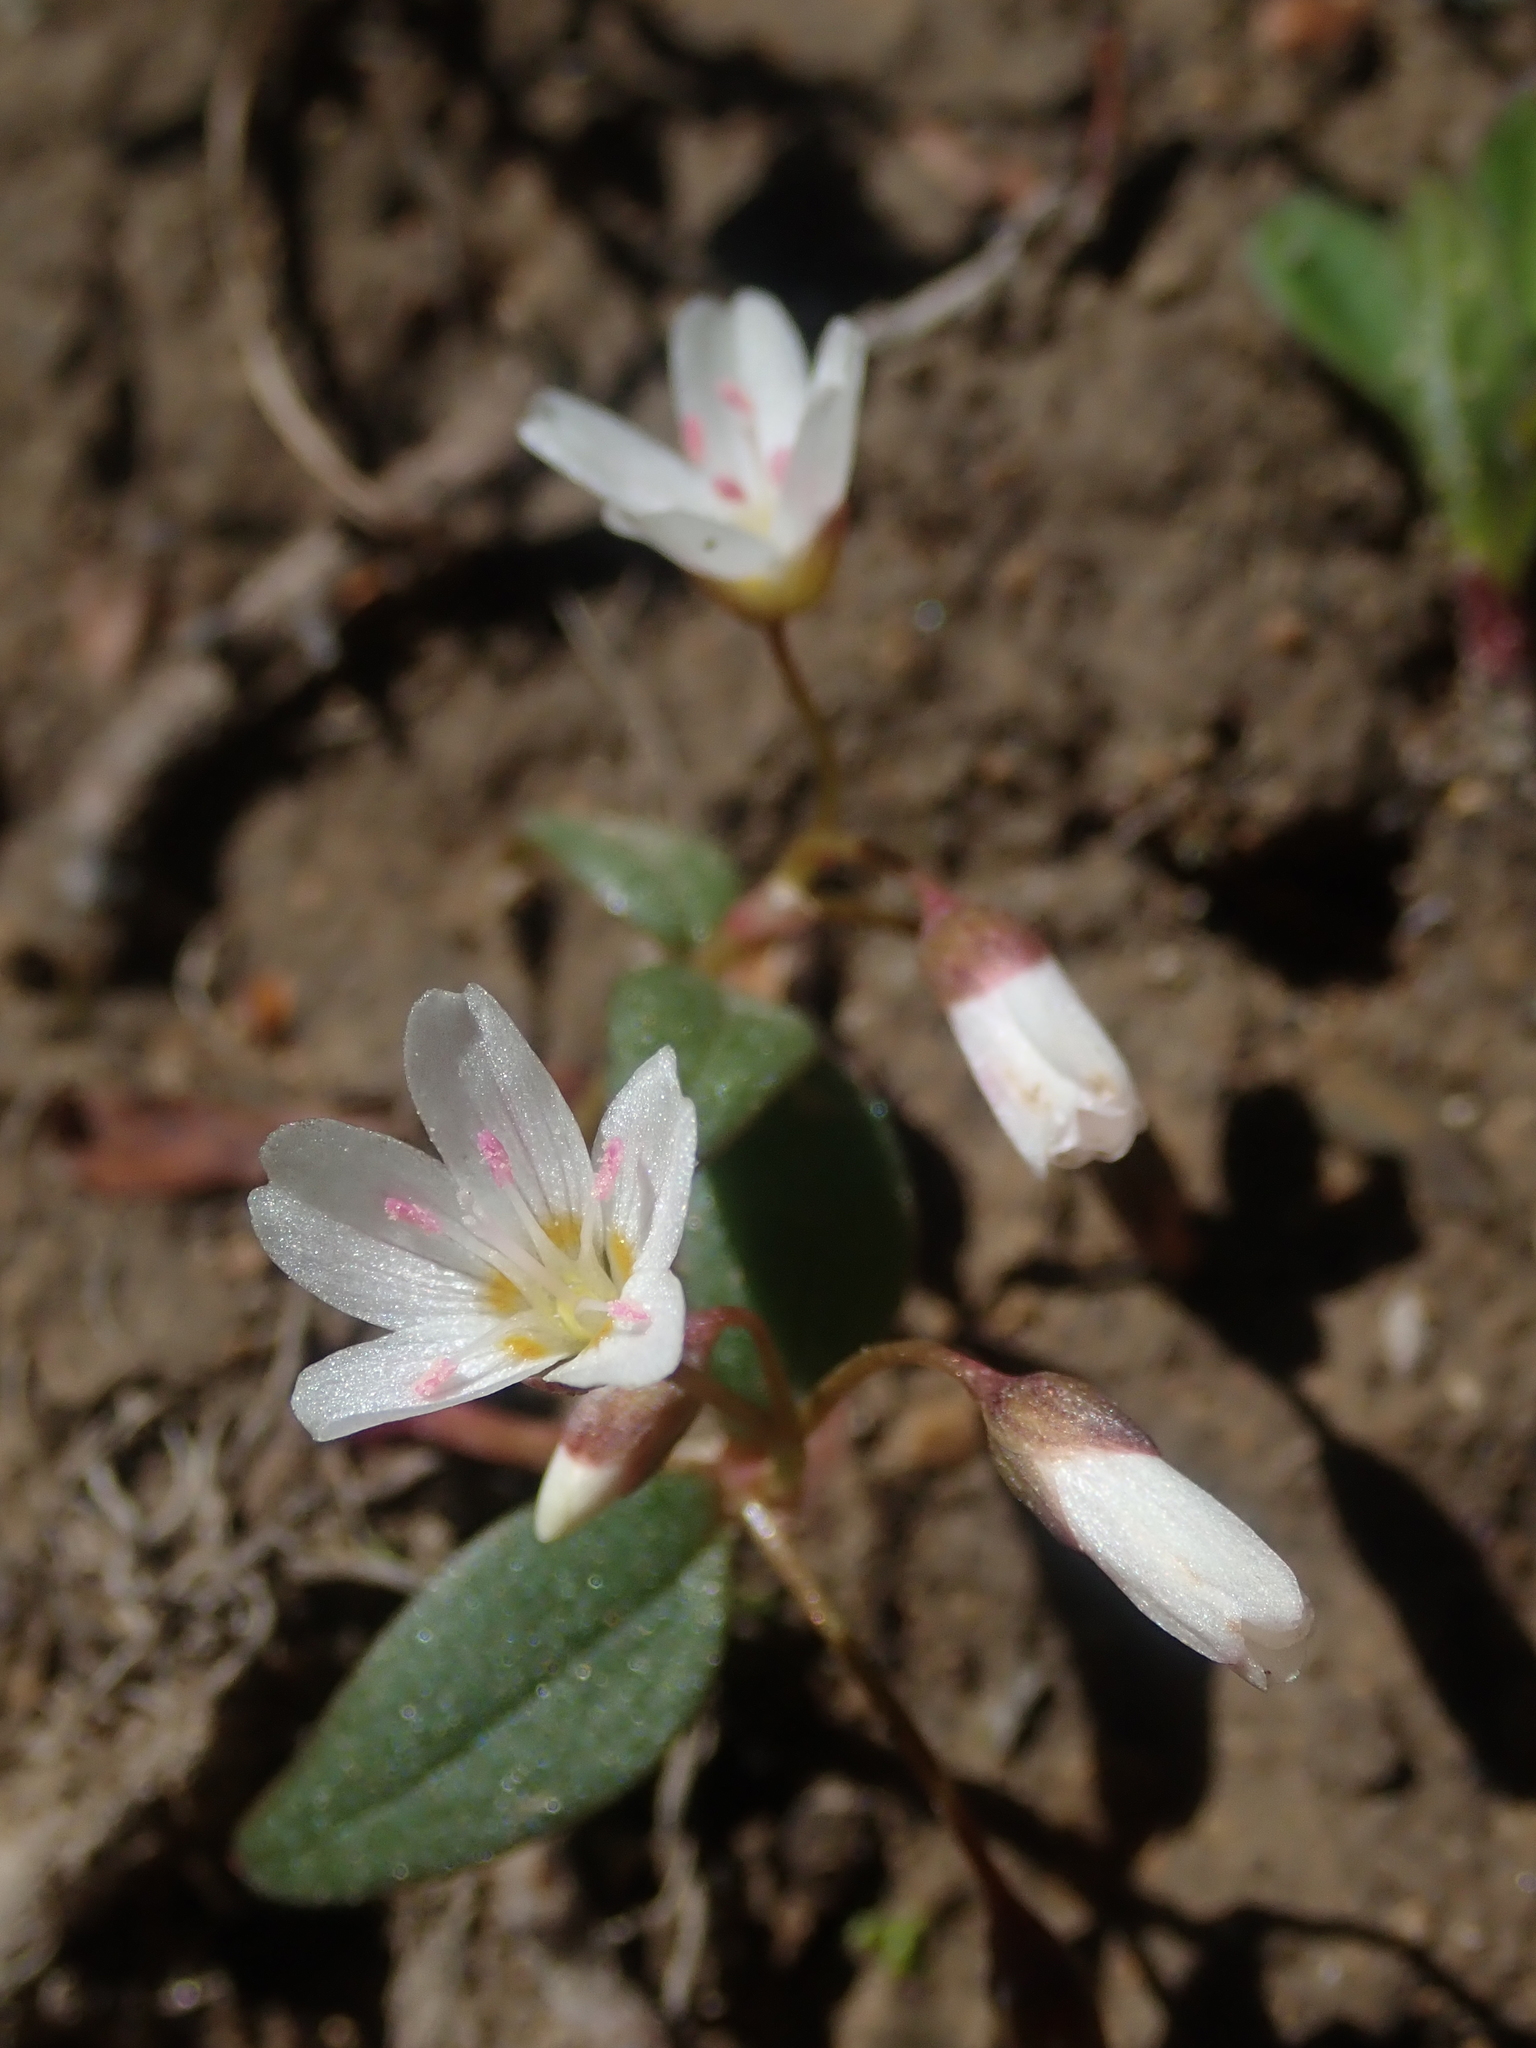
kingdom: Plantae
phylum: Tracheophyta
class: Magnoliopsida
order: Caryophyllales
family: Montiaceae
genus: Claytonia
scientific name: Claytonia lanceolata
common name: Western spring-beauty
